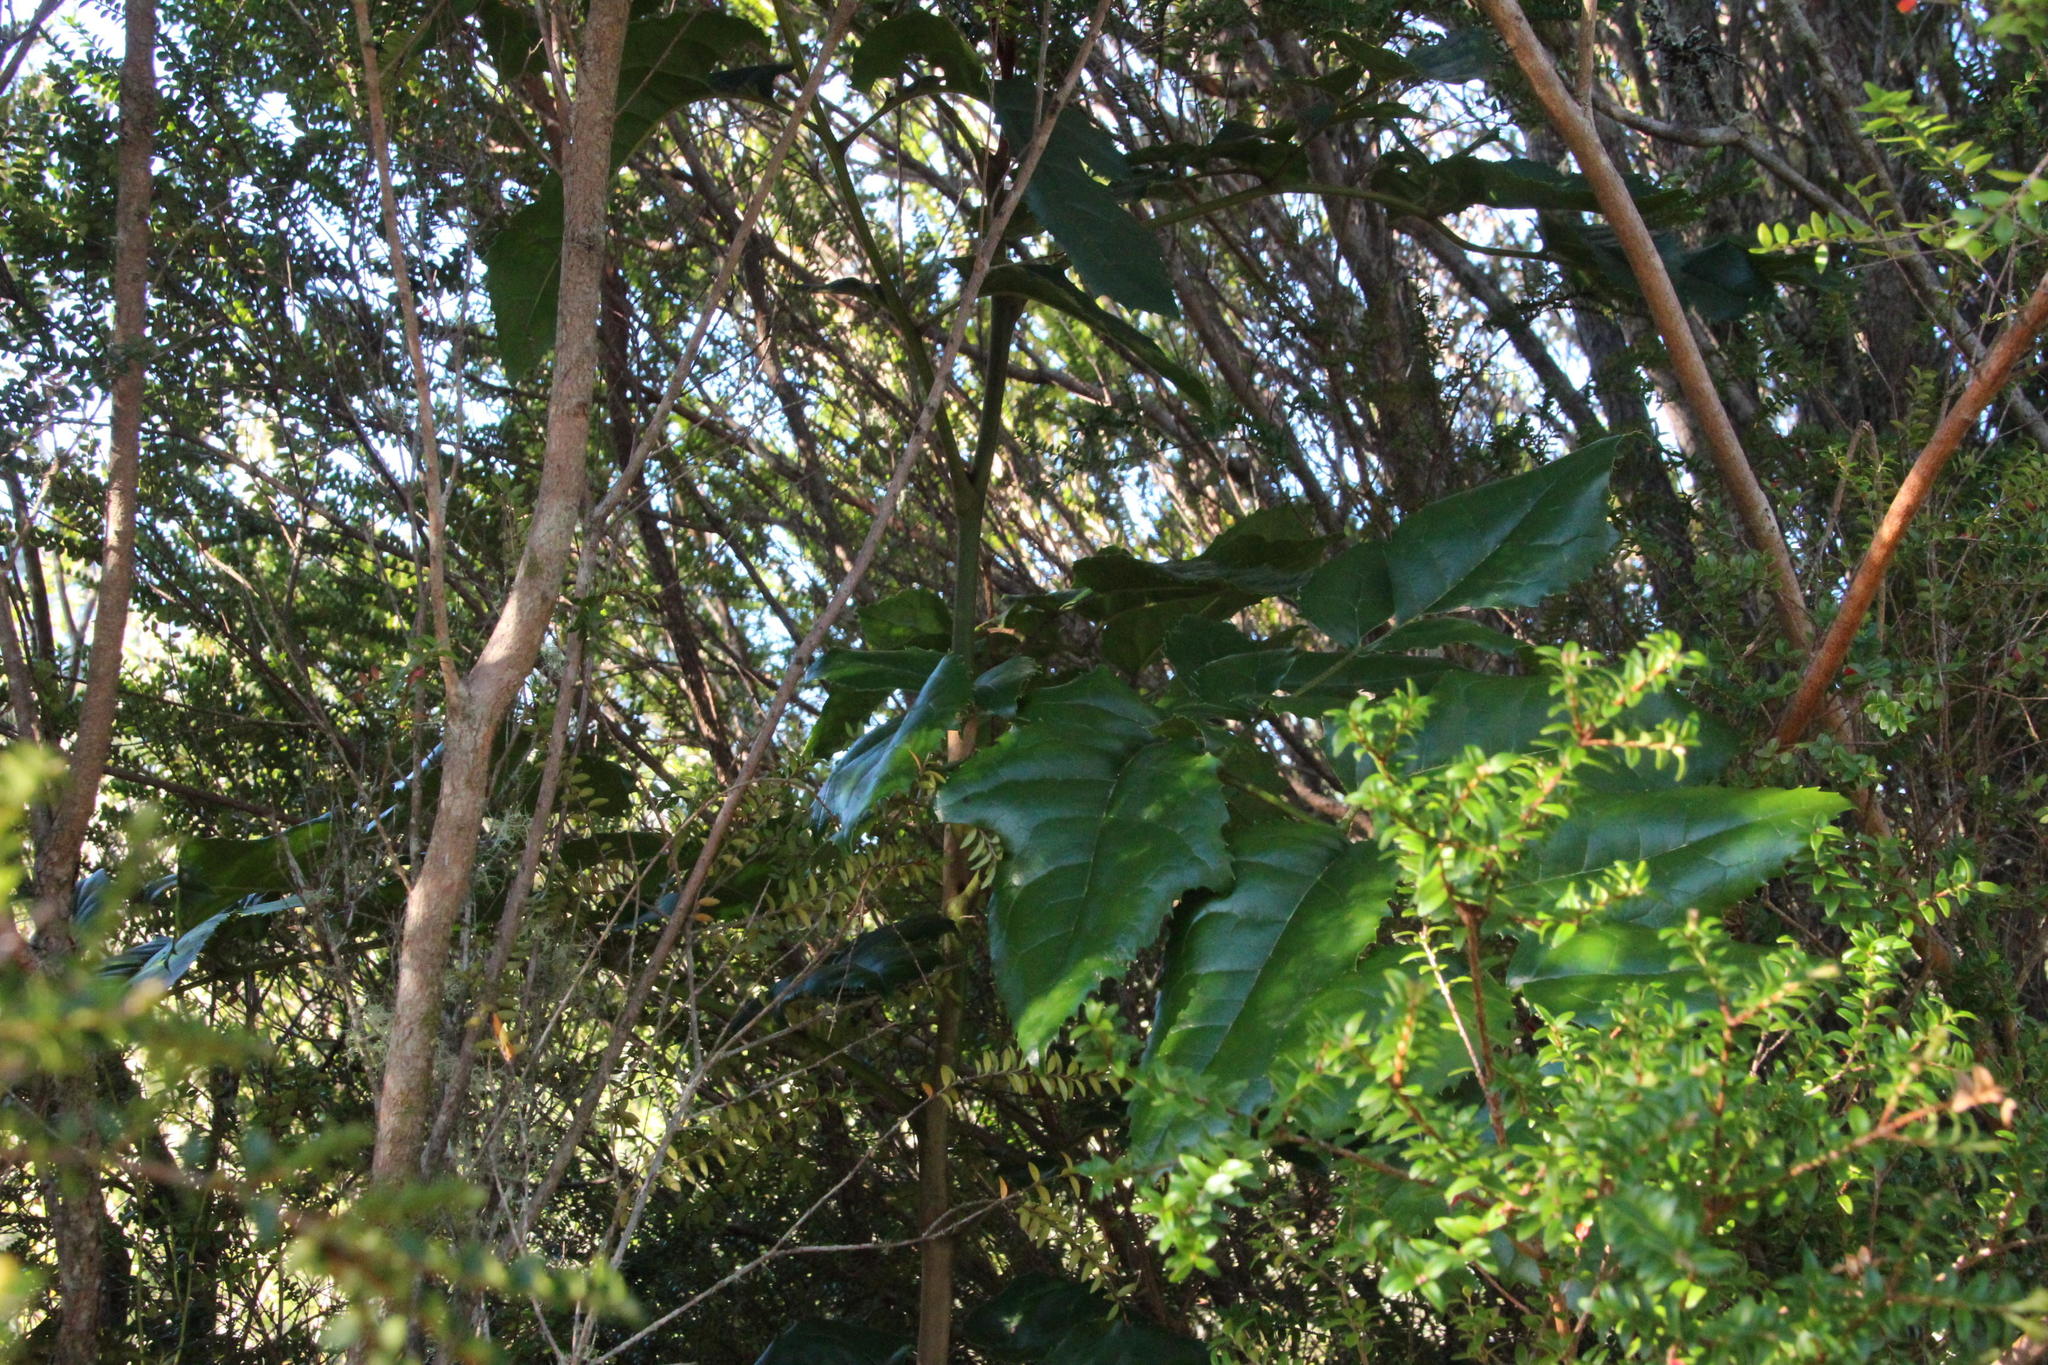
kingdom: Plantae
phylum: Tracheophyta
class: Magnoliopsida
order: Proteales
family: Proteaceae
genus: Gevuina
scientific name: Gevuina avellana
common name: Chilean hazel
